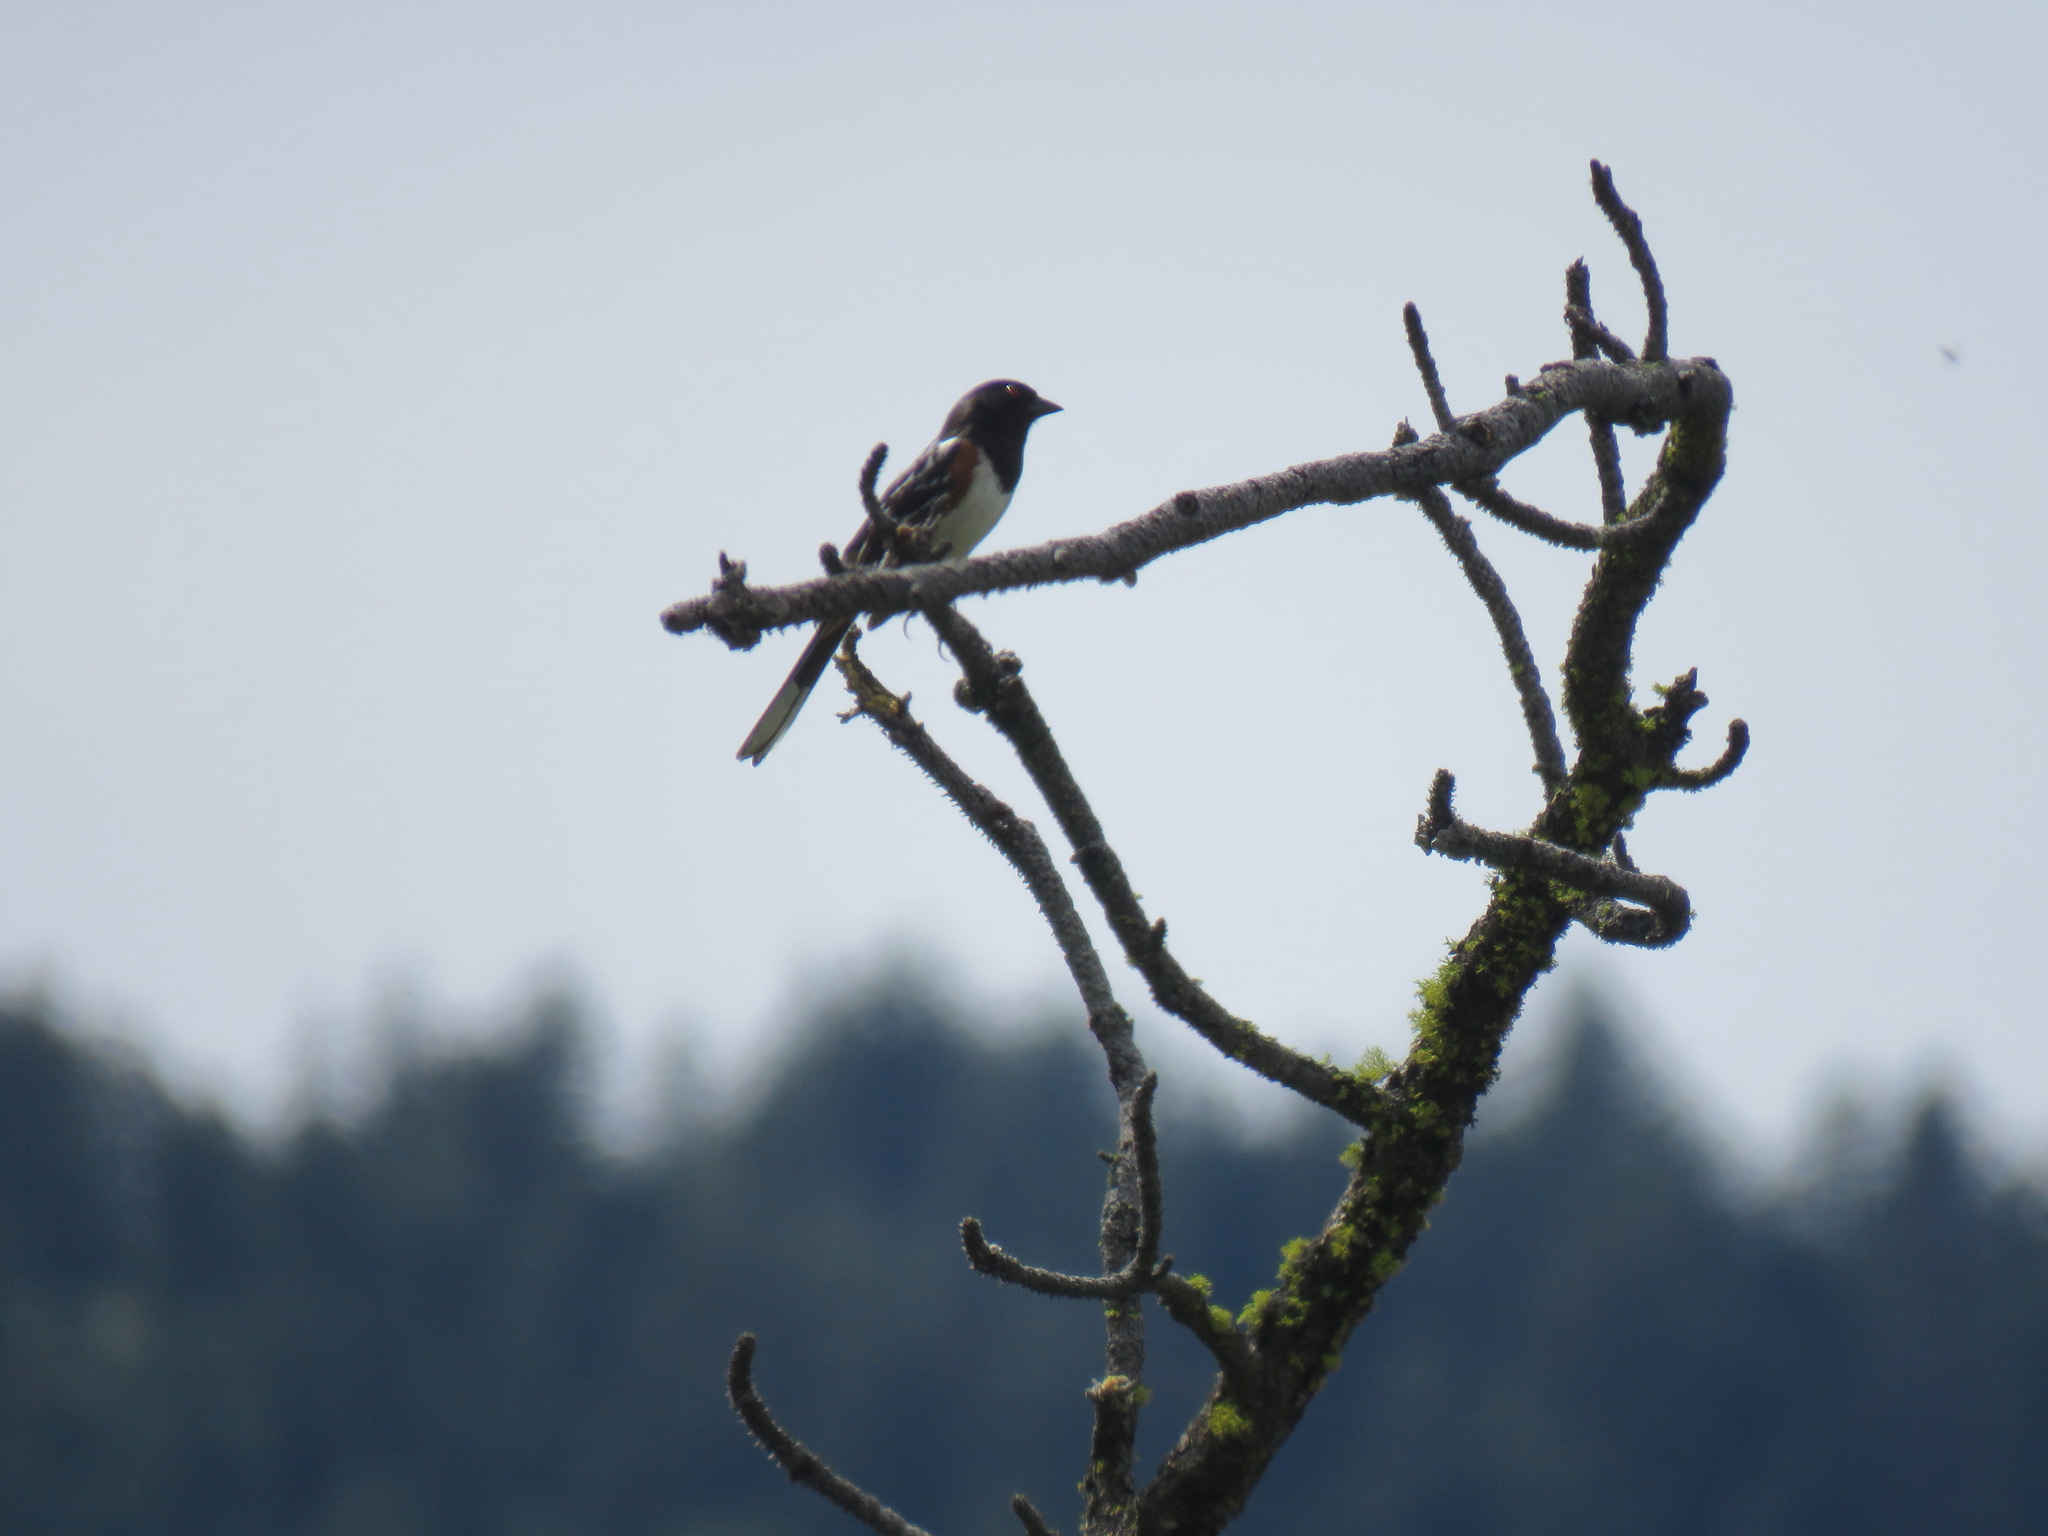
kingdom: Animalia
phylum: Chordata
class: Aves
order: Passeriformes
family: Passerellidae
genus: Pipilo
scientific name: Pipilo maculatus
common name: Spotted towhee
